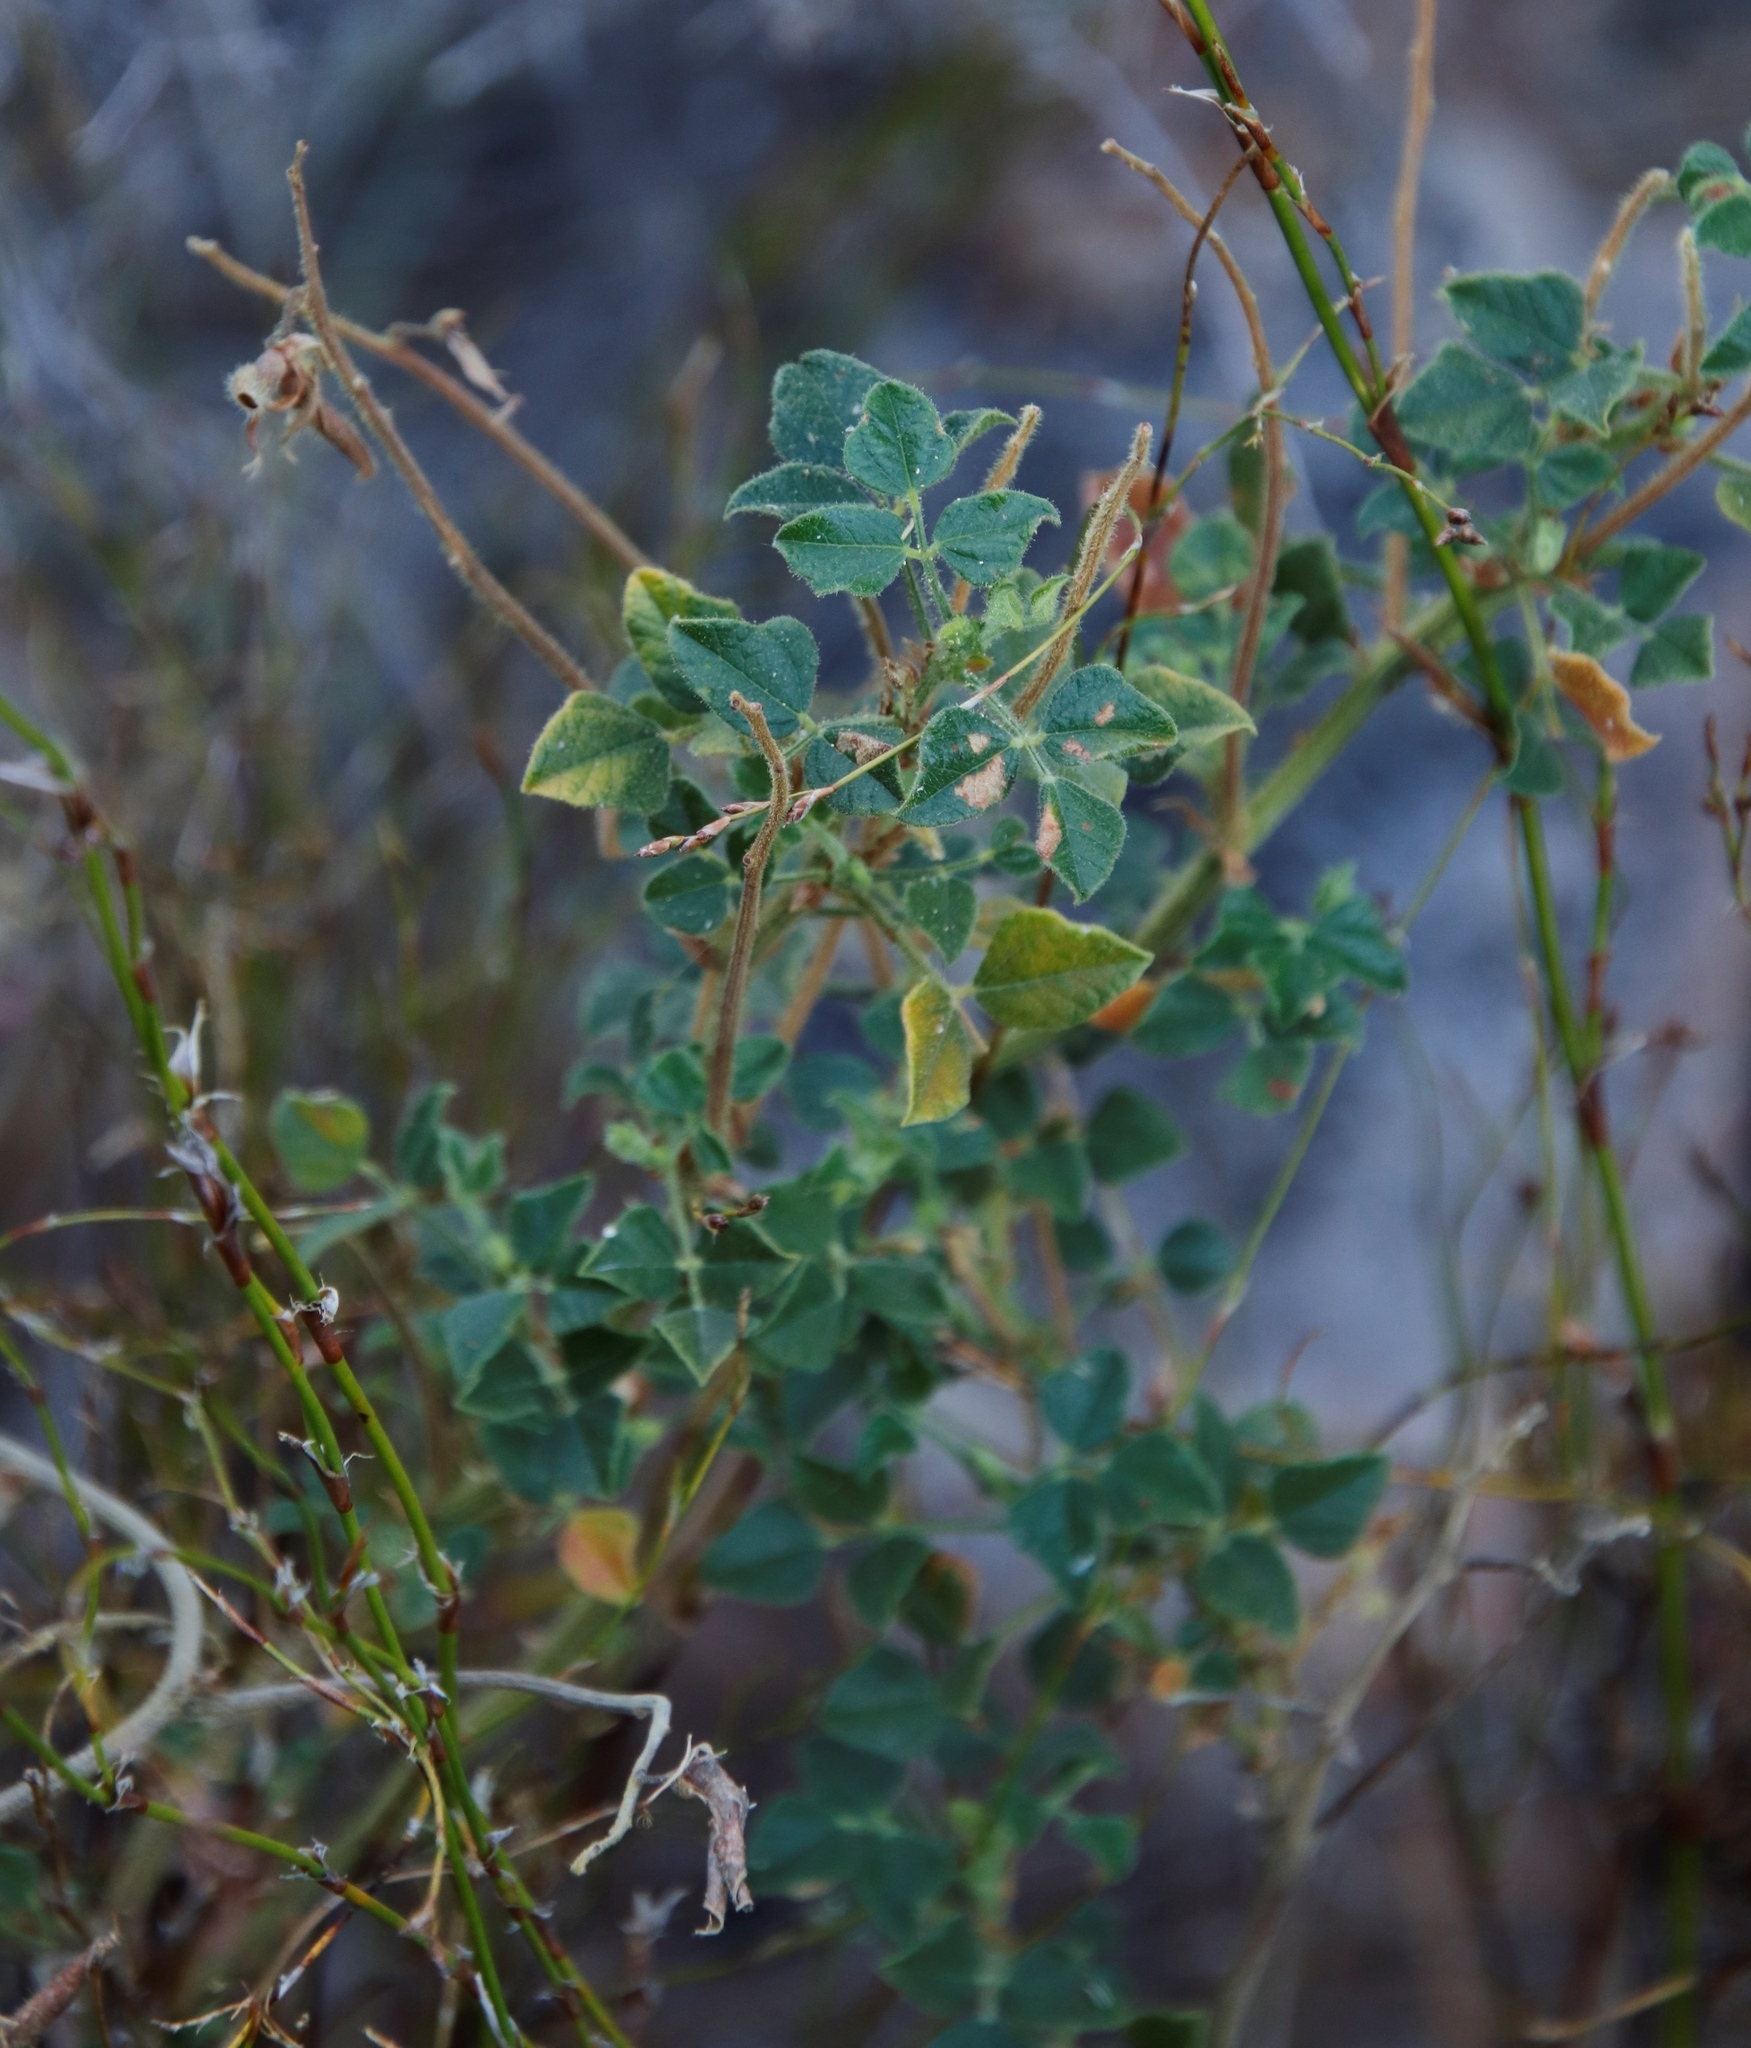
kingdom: Plantae
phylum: Tracheophyta
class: Magnoliopsida
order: Fabales
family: Fabaceae
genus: Bolusafra
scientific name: Bolusafra bituminosa
